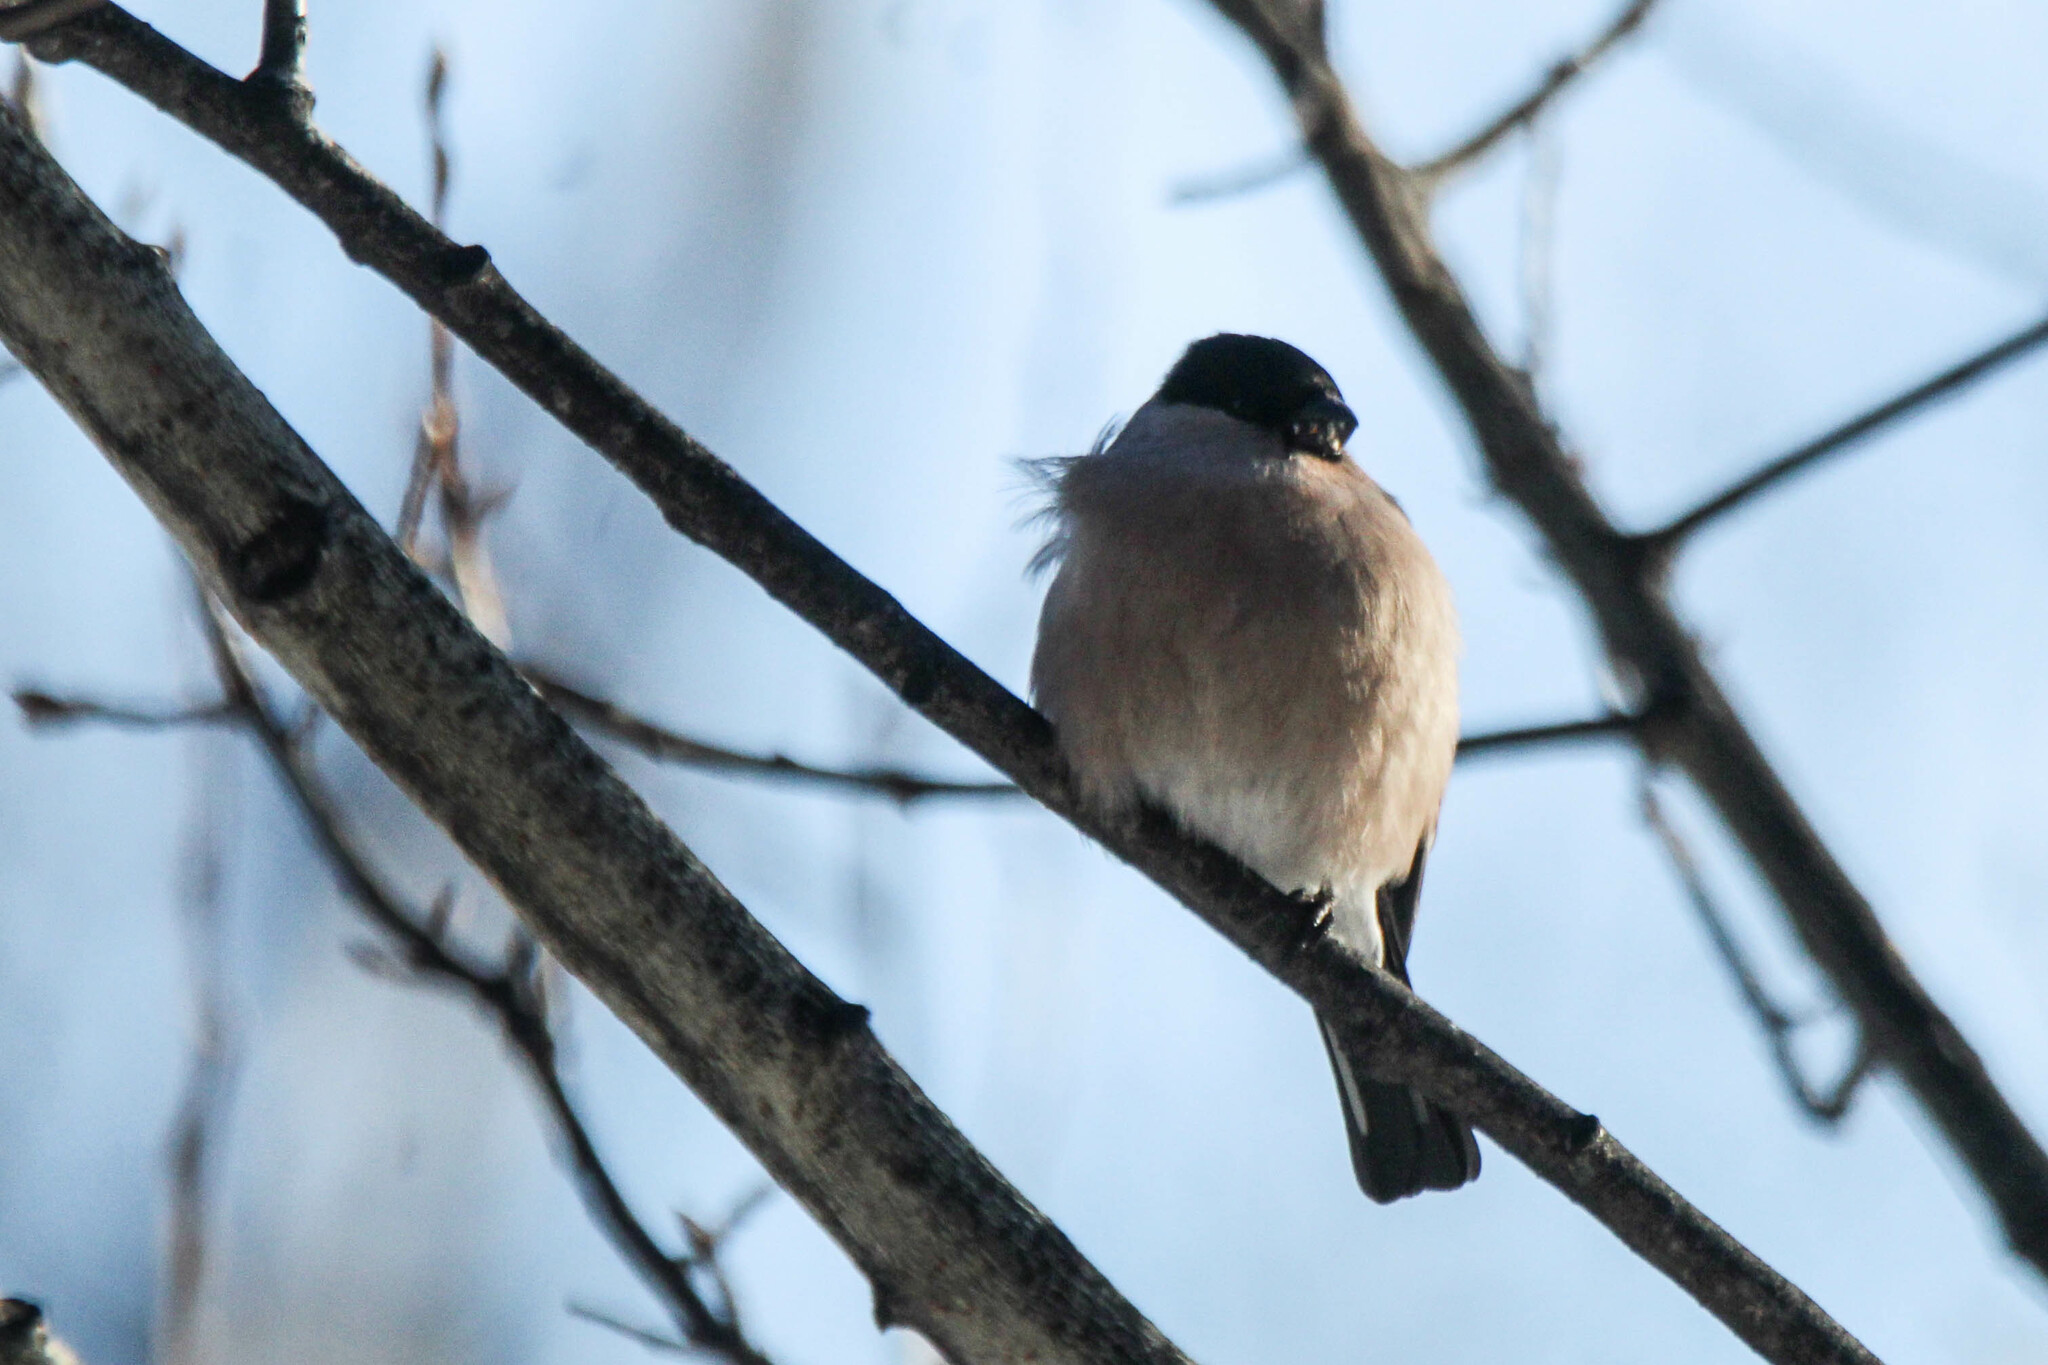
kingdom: Animalia
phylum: Chordata
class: Aves
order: Passeriformes
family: Fringillidae
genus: Pyrrhula
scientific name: Pyrrhula pyrrhula
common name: Eurasian bullfinch
